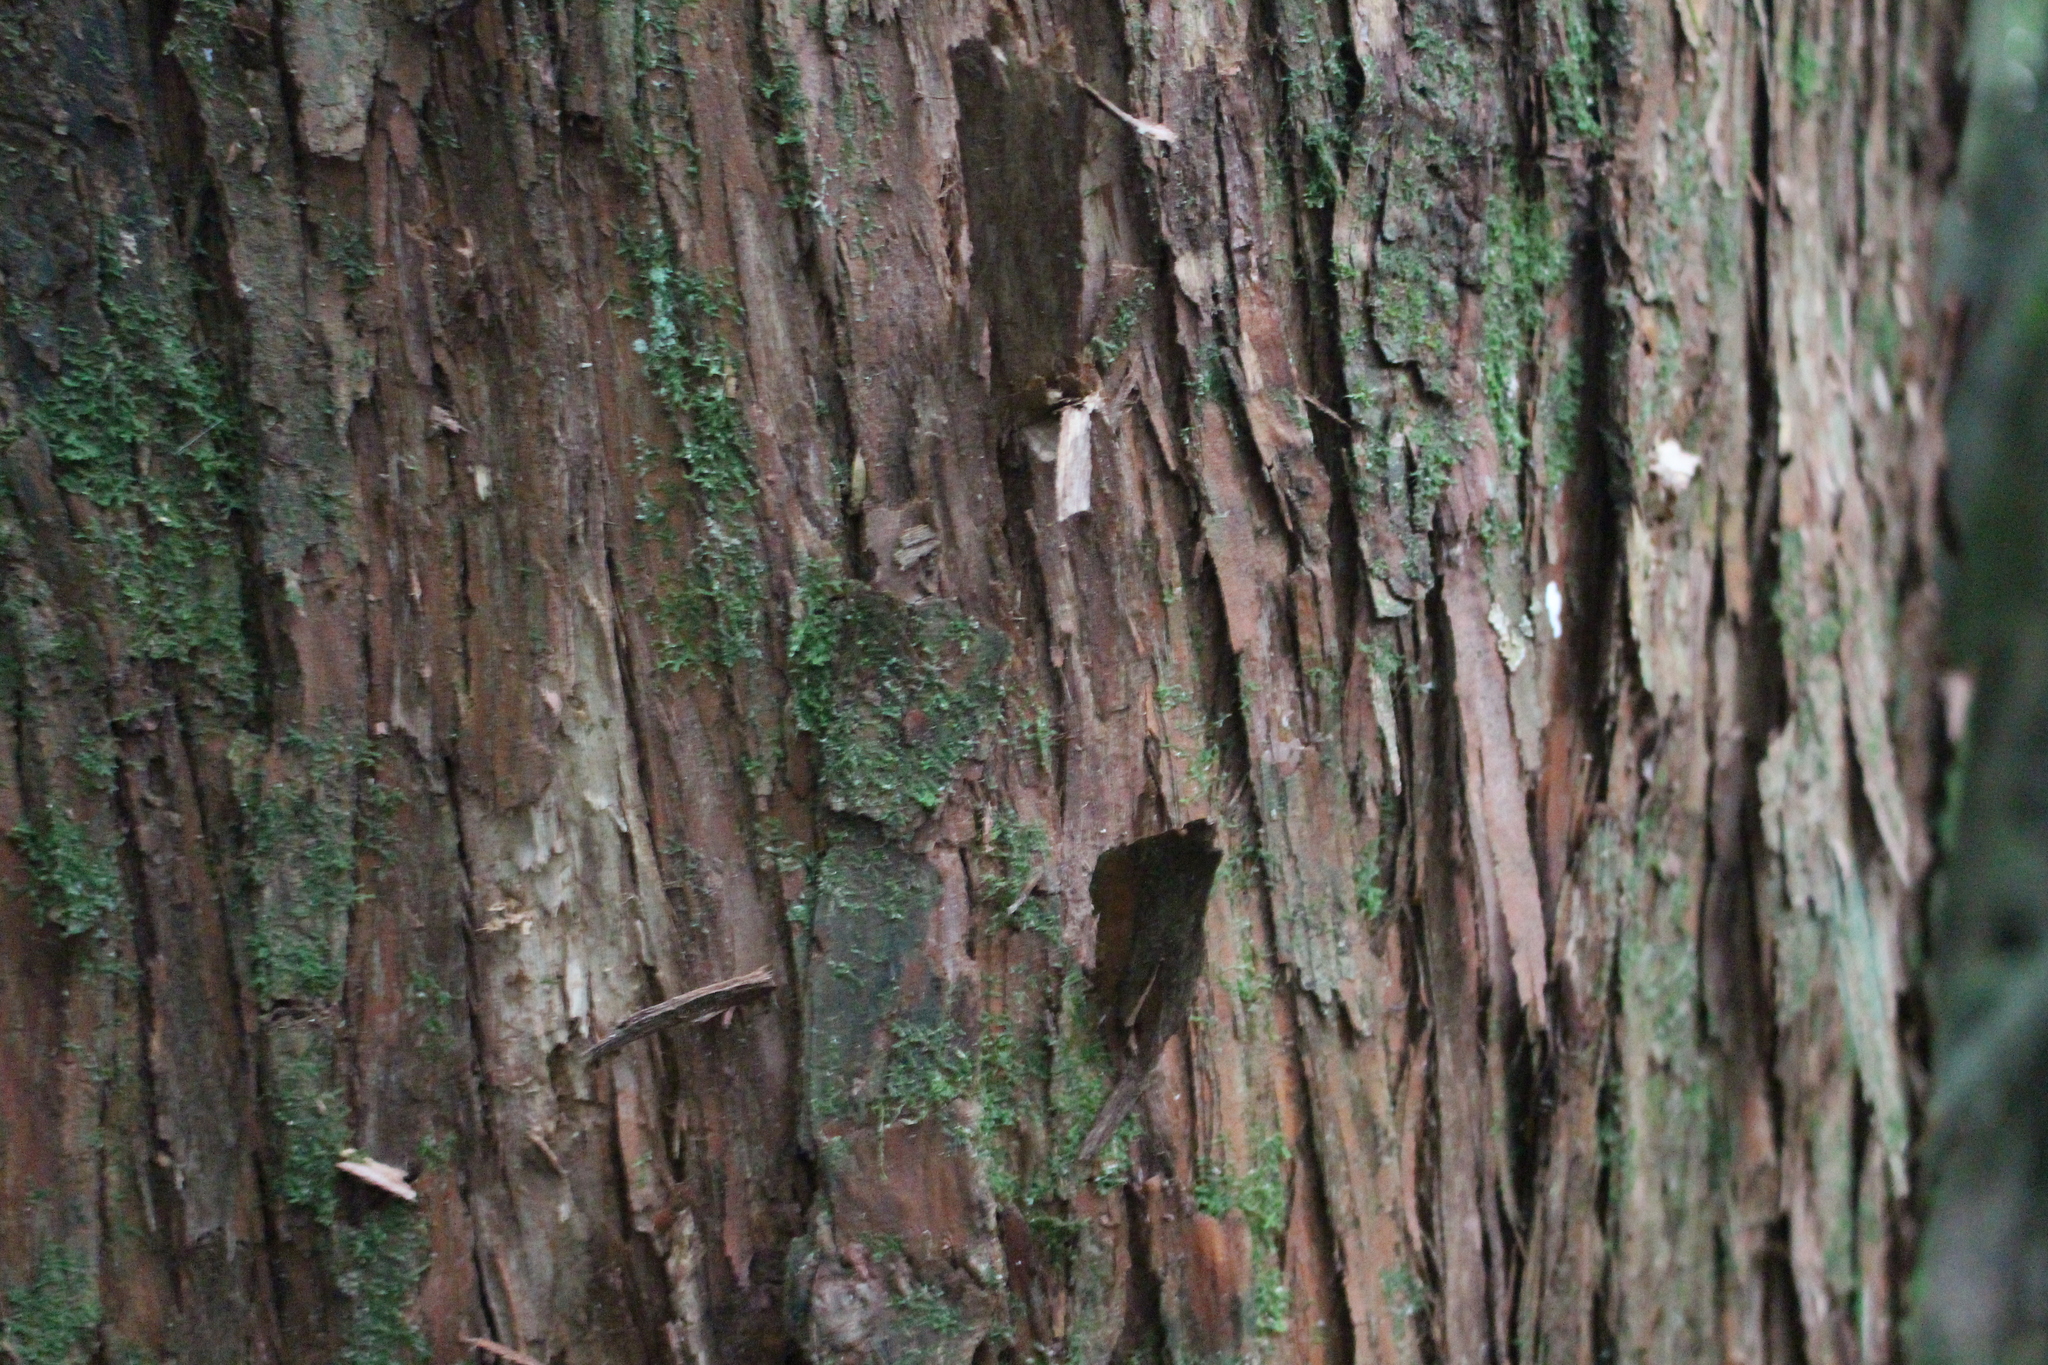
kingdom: Plantae
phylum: Tracheophyta
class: Pinopsida
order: Pinales
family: Podocarpaceae
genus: Podocarpus
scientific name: Podocarpus laetus
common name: Hall's totara
